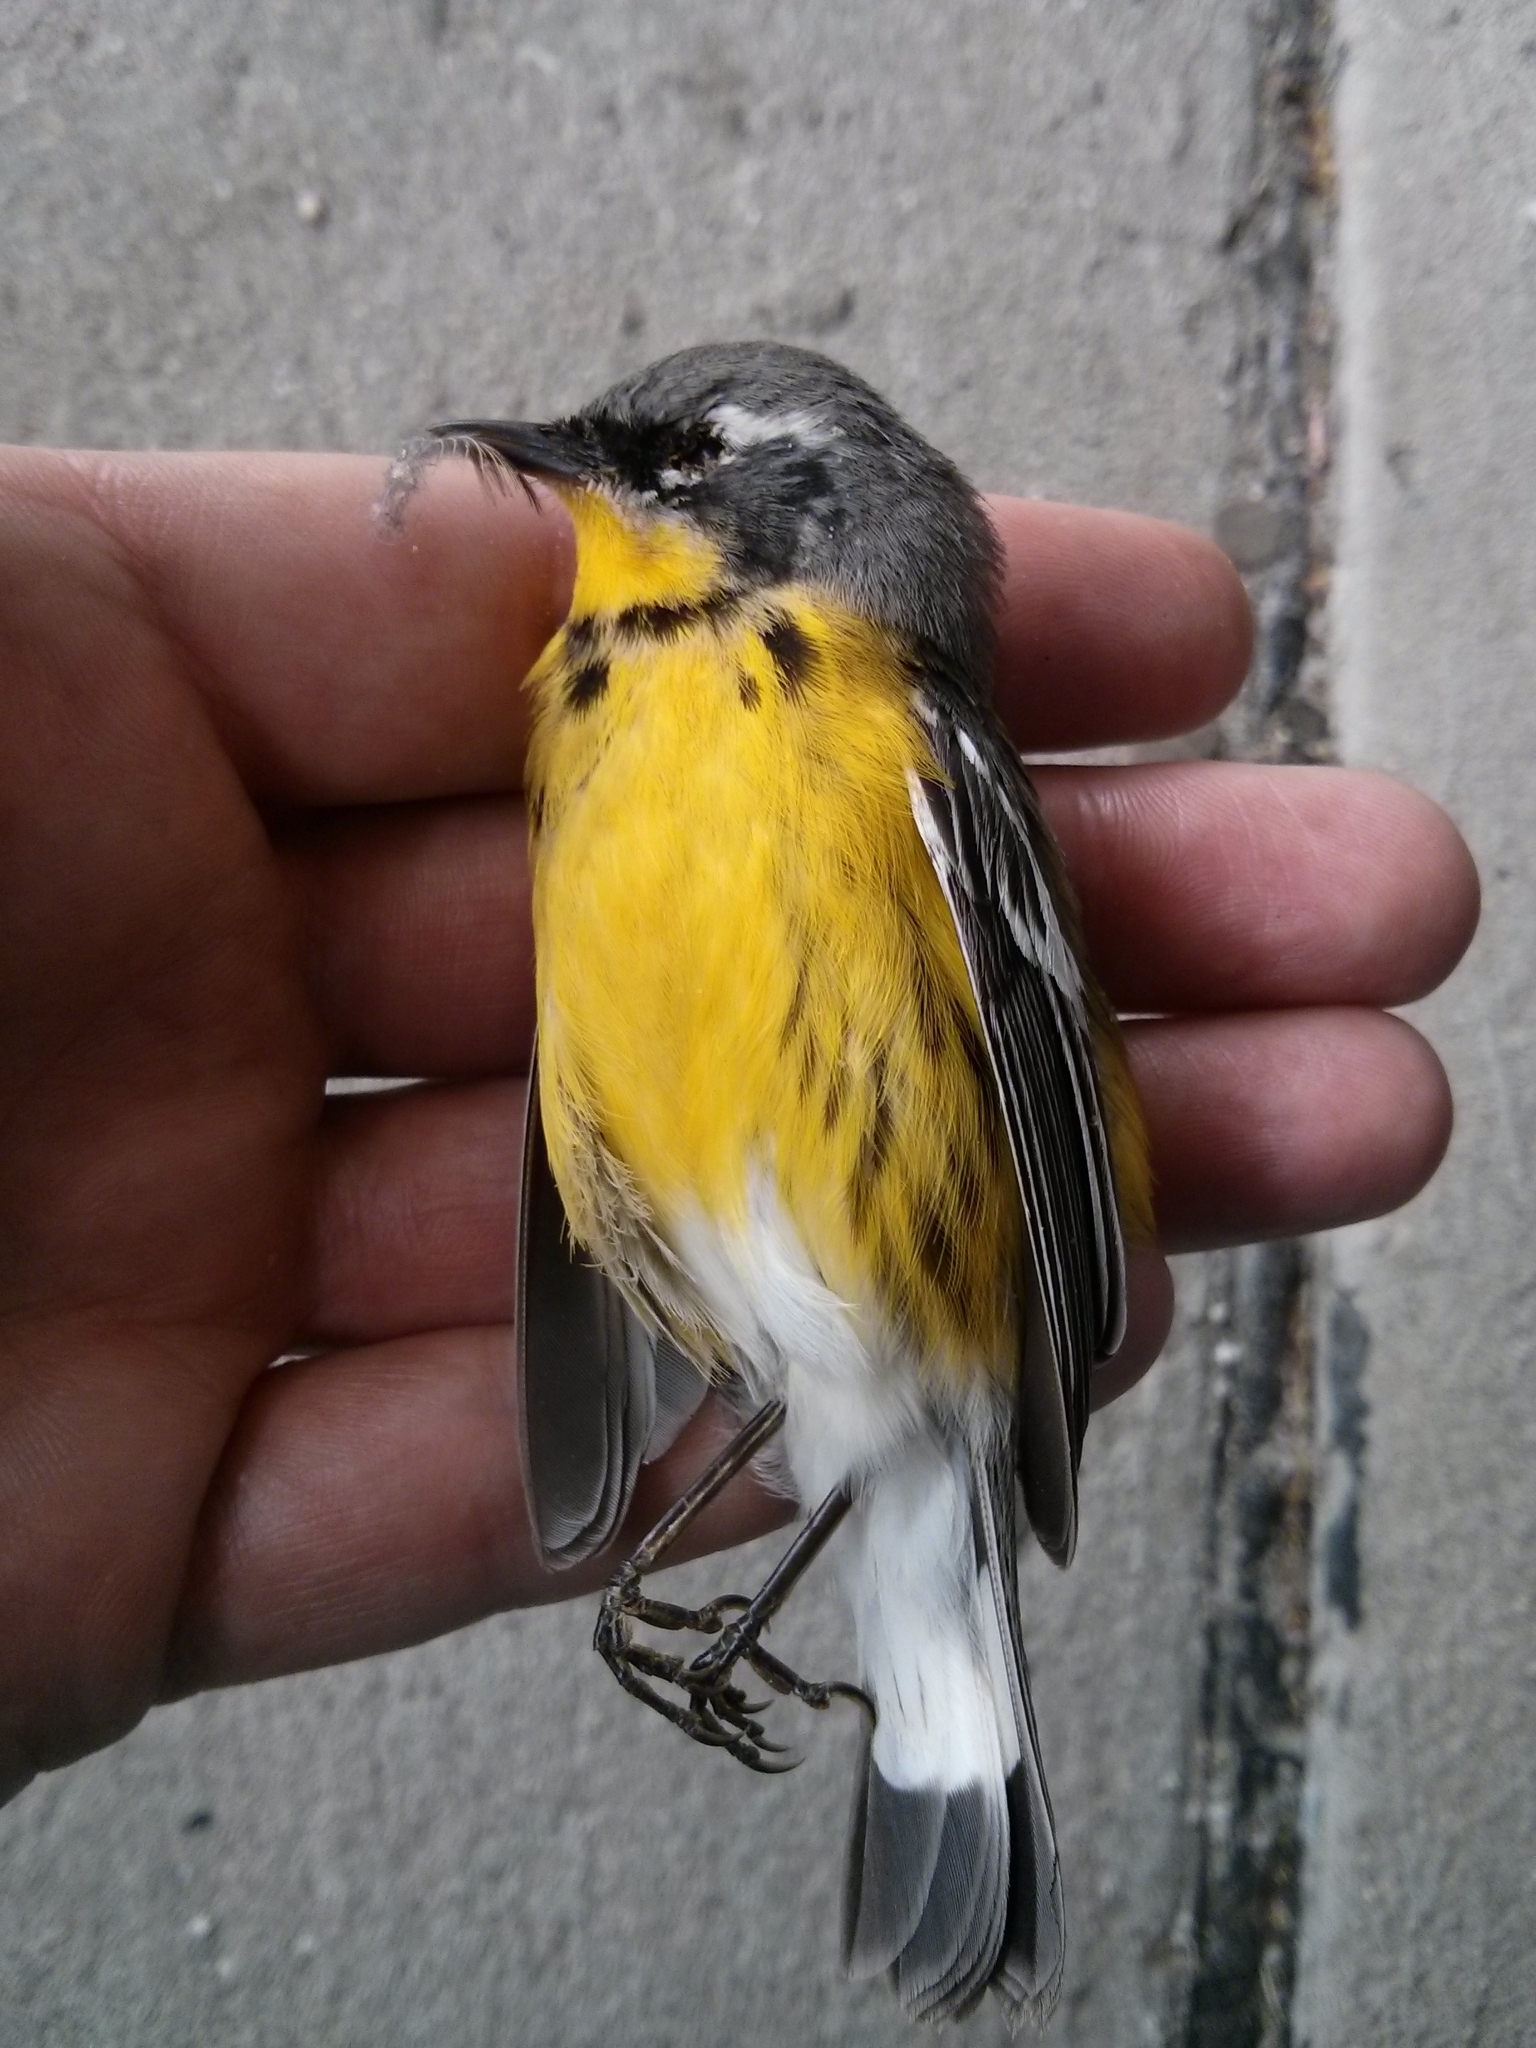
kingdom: Animalia
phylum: Chordata
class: Aves
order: Passeriformes
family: Parulidae
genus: Setophaga
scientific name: Setophaga magnolia
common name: Magnolia warbler
